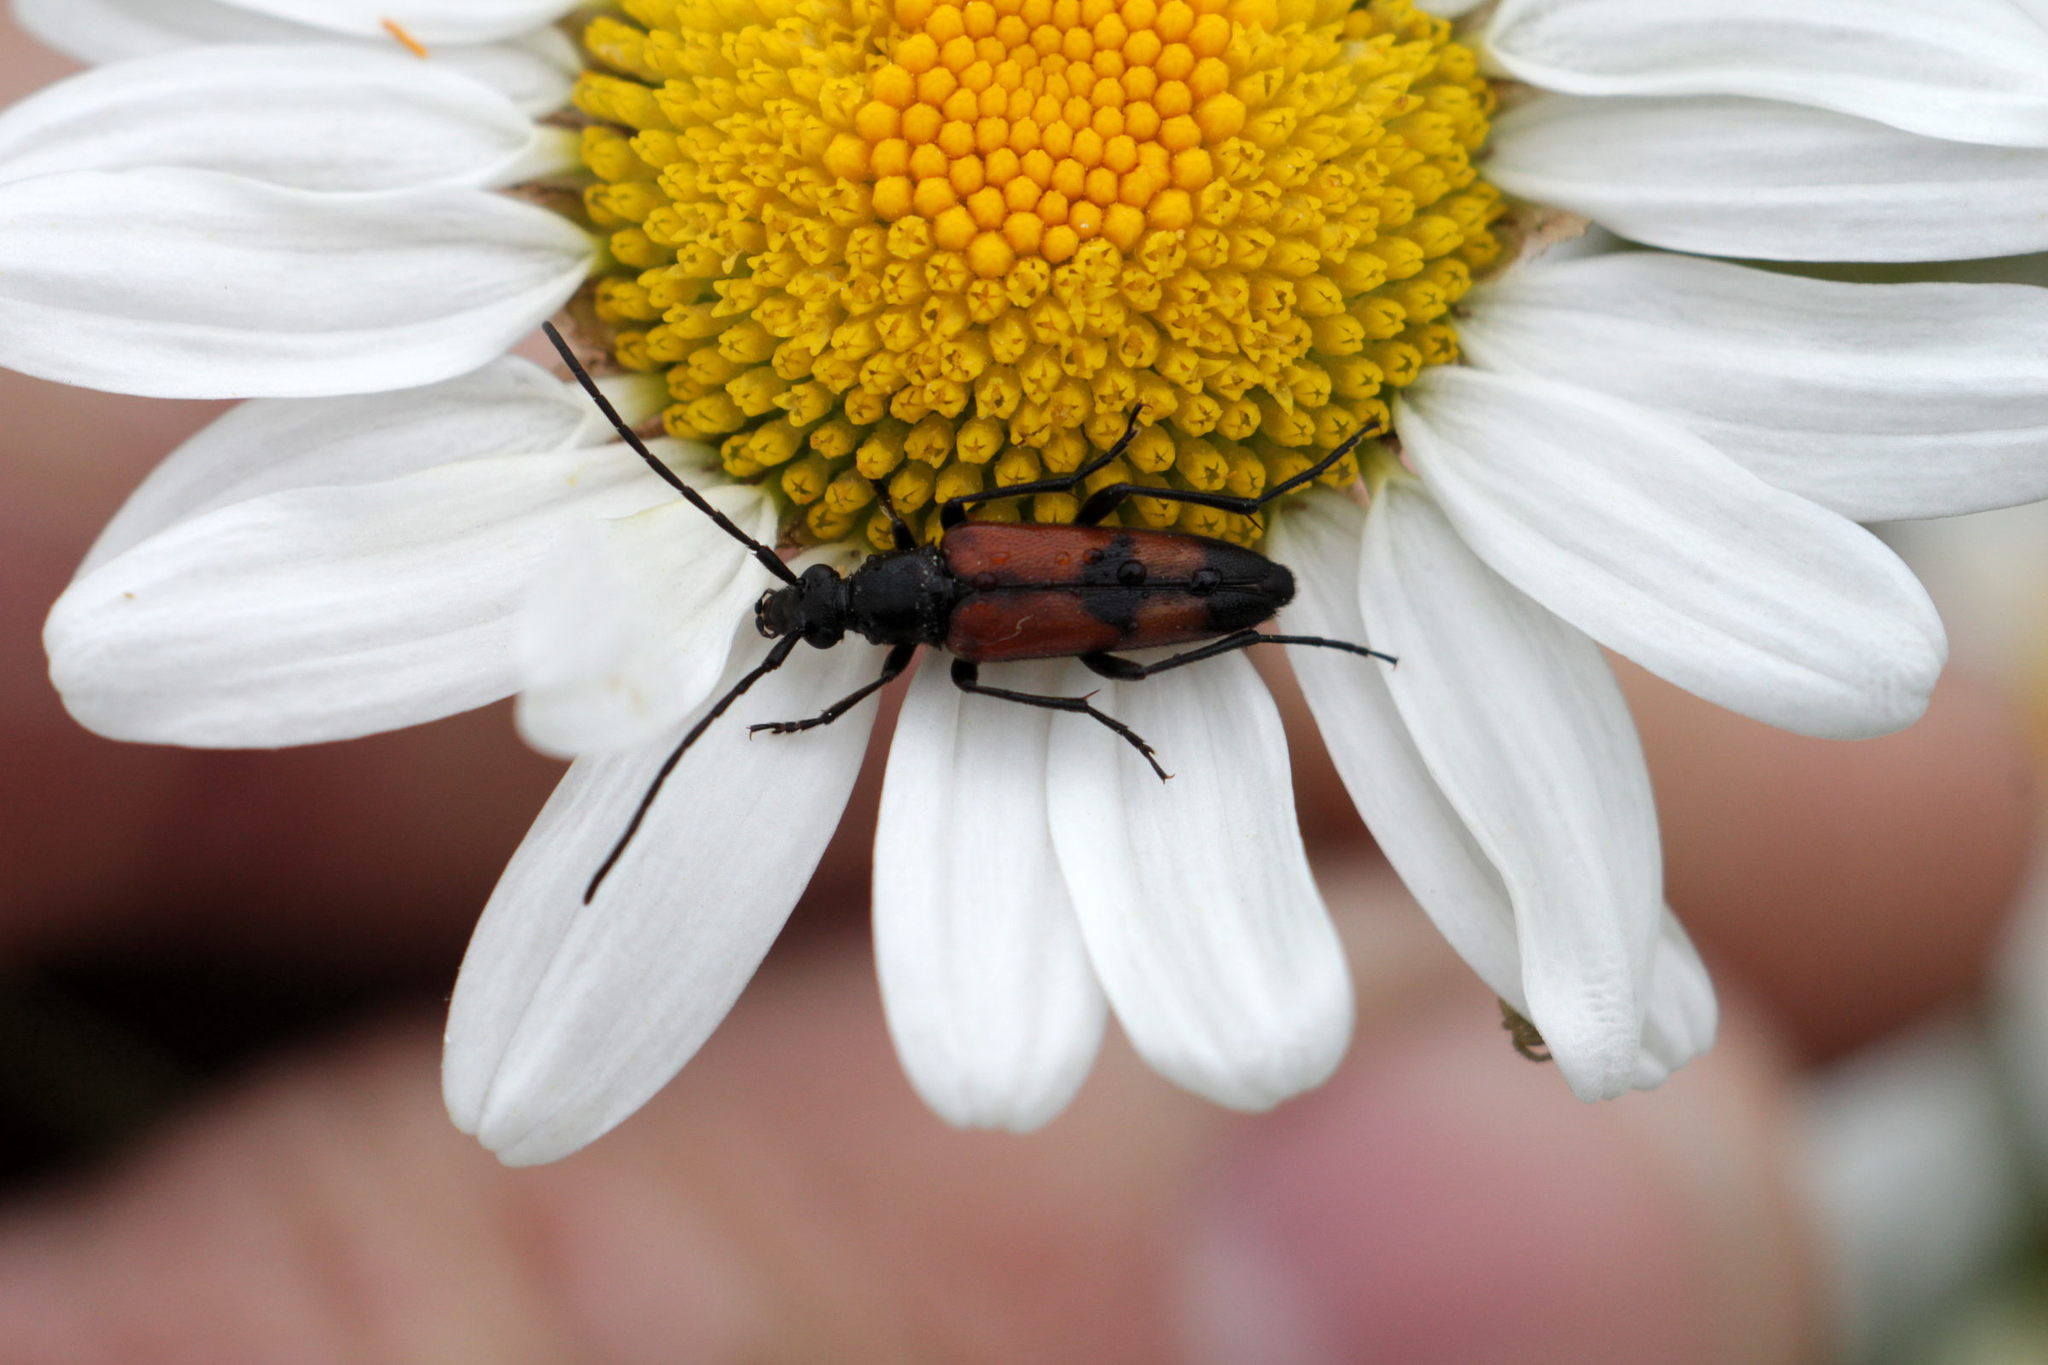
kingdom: Animalia
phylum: Arthropoda
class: Insecta
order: Coleoptera
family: Cerambycidae
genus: Stenurella
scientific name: Stenurella bifasciata
